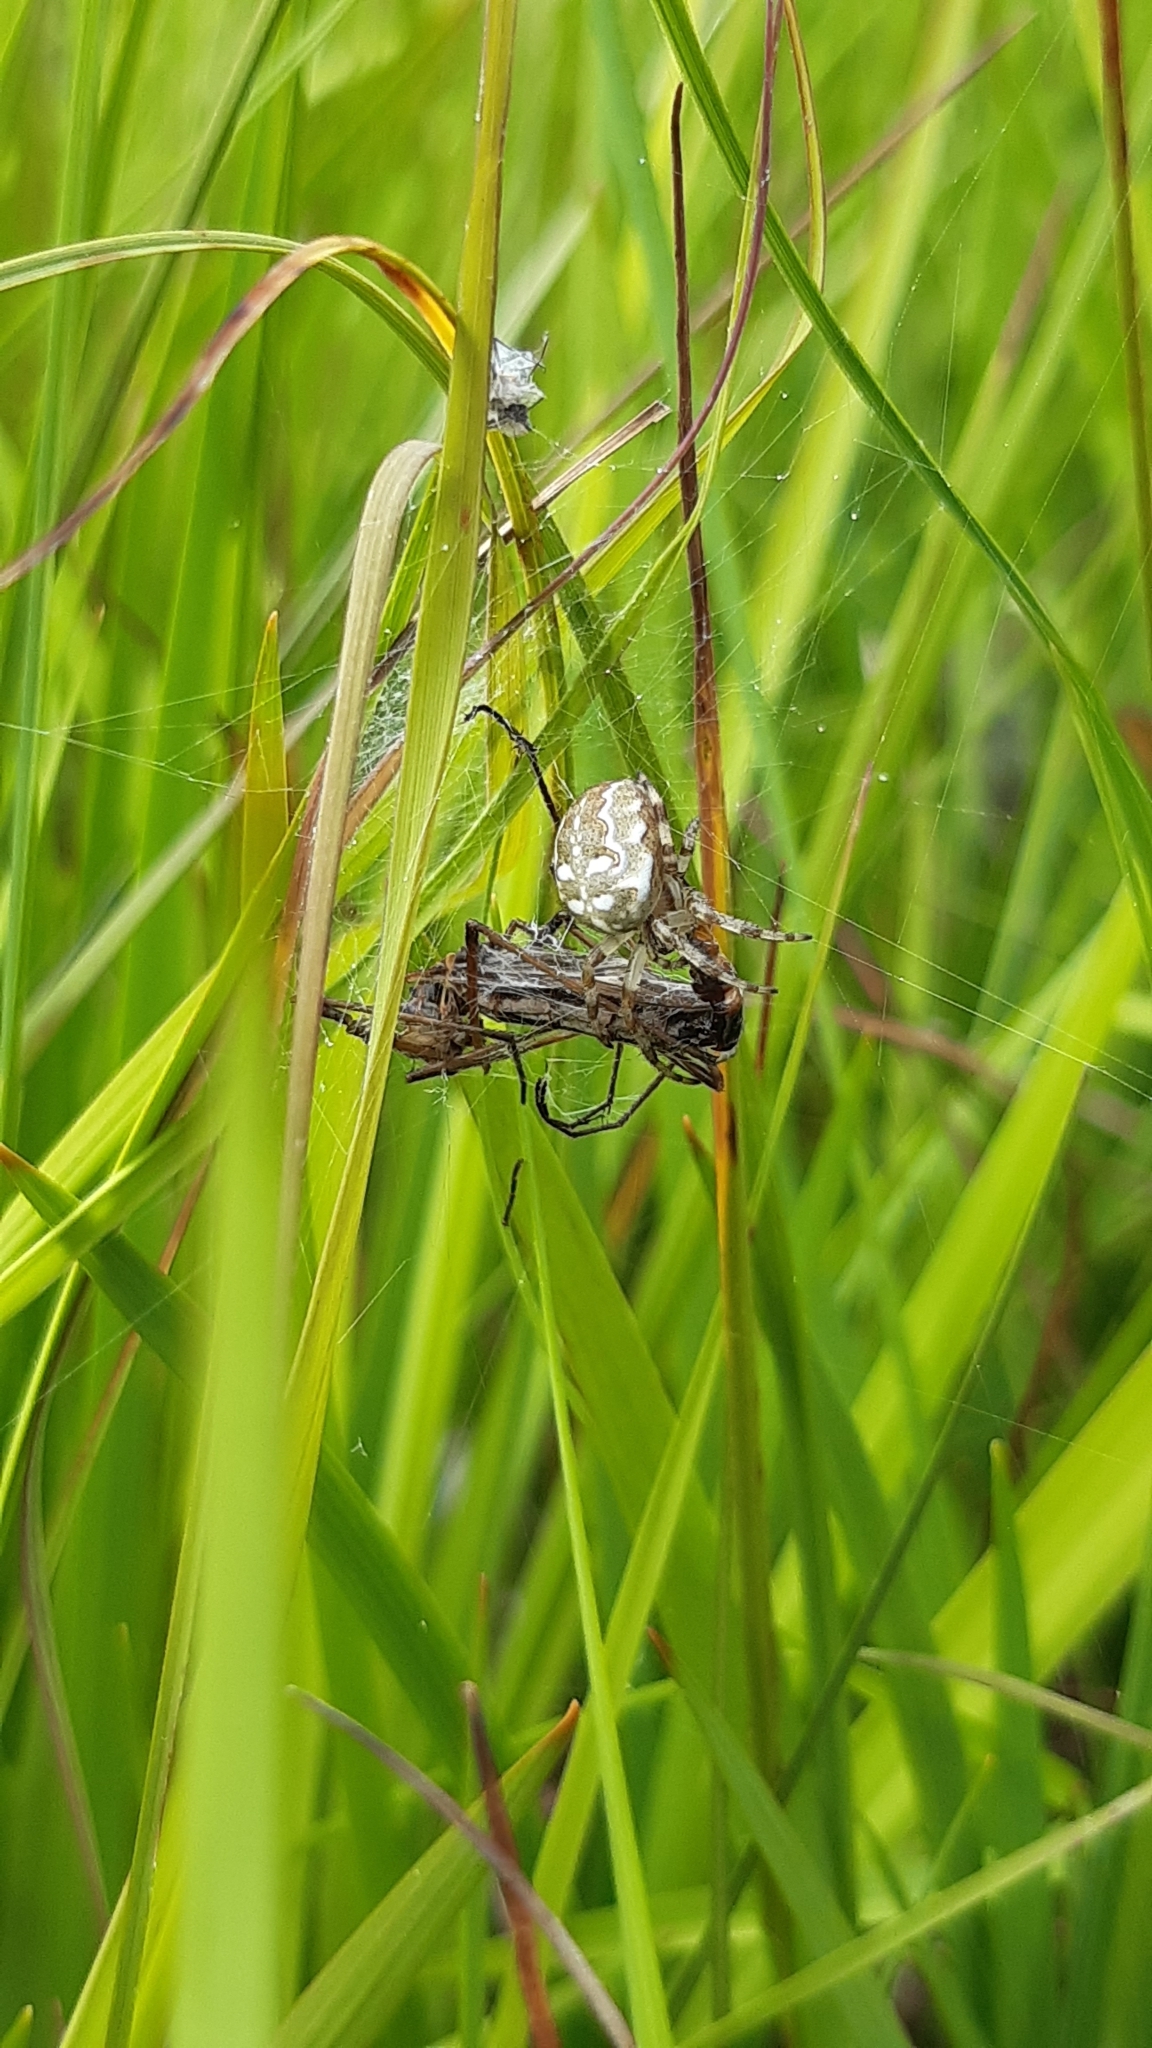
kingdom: Animalia
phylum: Arthropoda
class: Arachnida
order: Araneae
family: Araneidae
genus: Araneus
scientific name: Araneus quadratus
